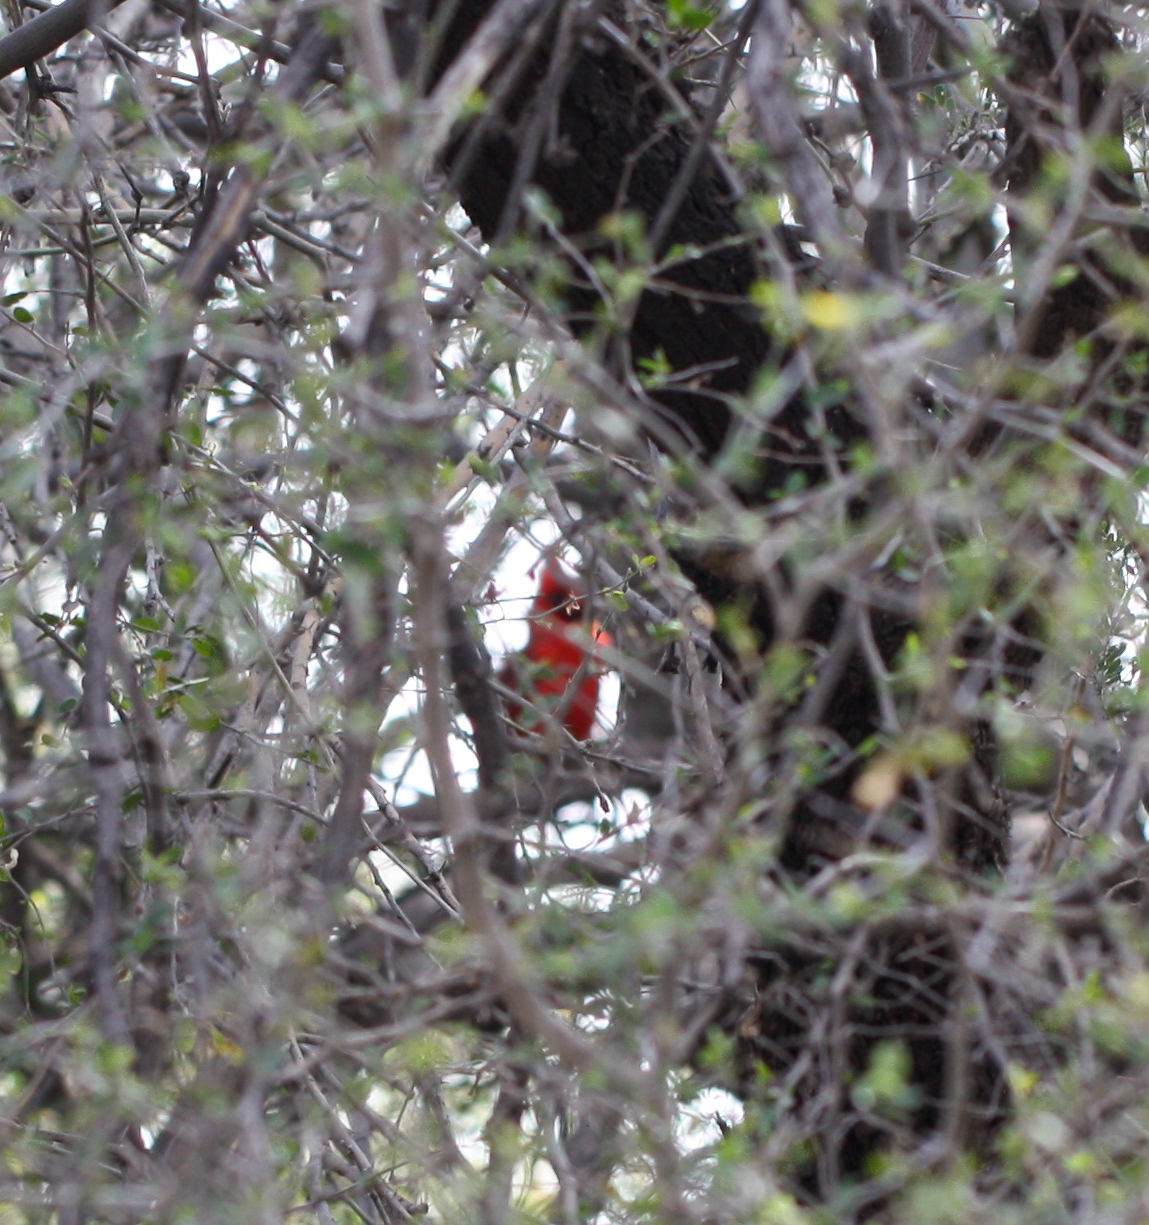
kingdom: Animalia
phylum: Chordata
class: Aves
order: Passeriformes
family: Cardinalidae
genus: Cardinalis
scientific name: Cardinalis cardinalis
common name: Northern cardinal
